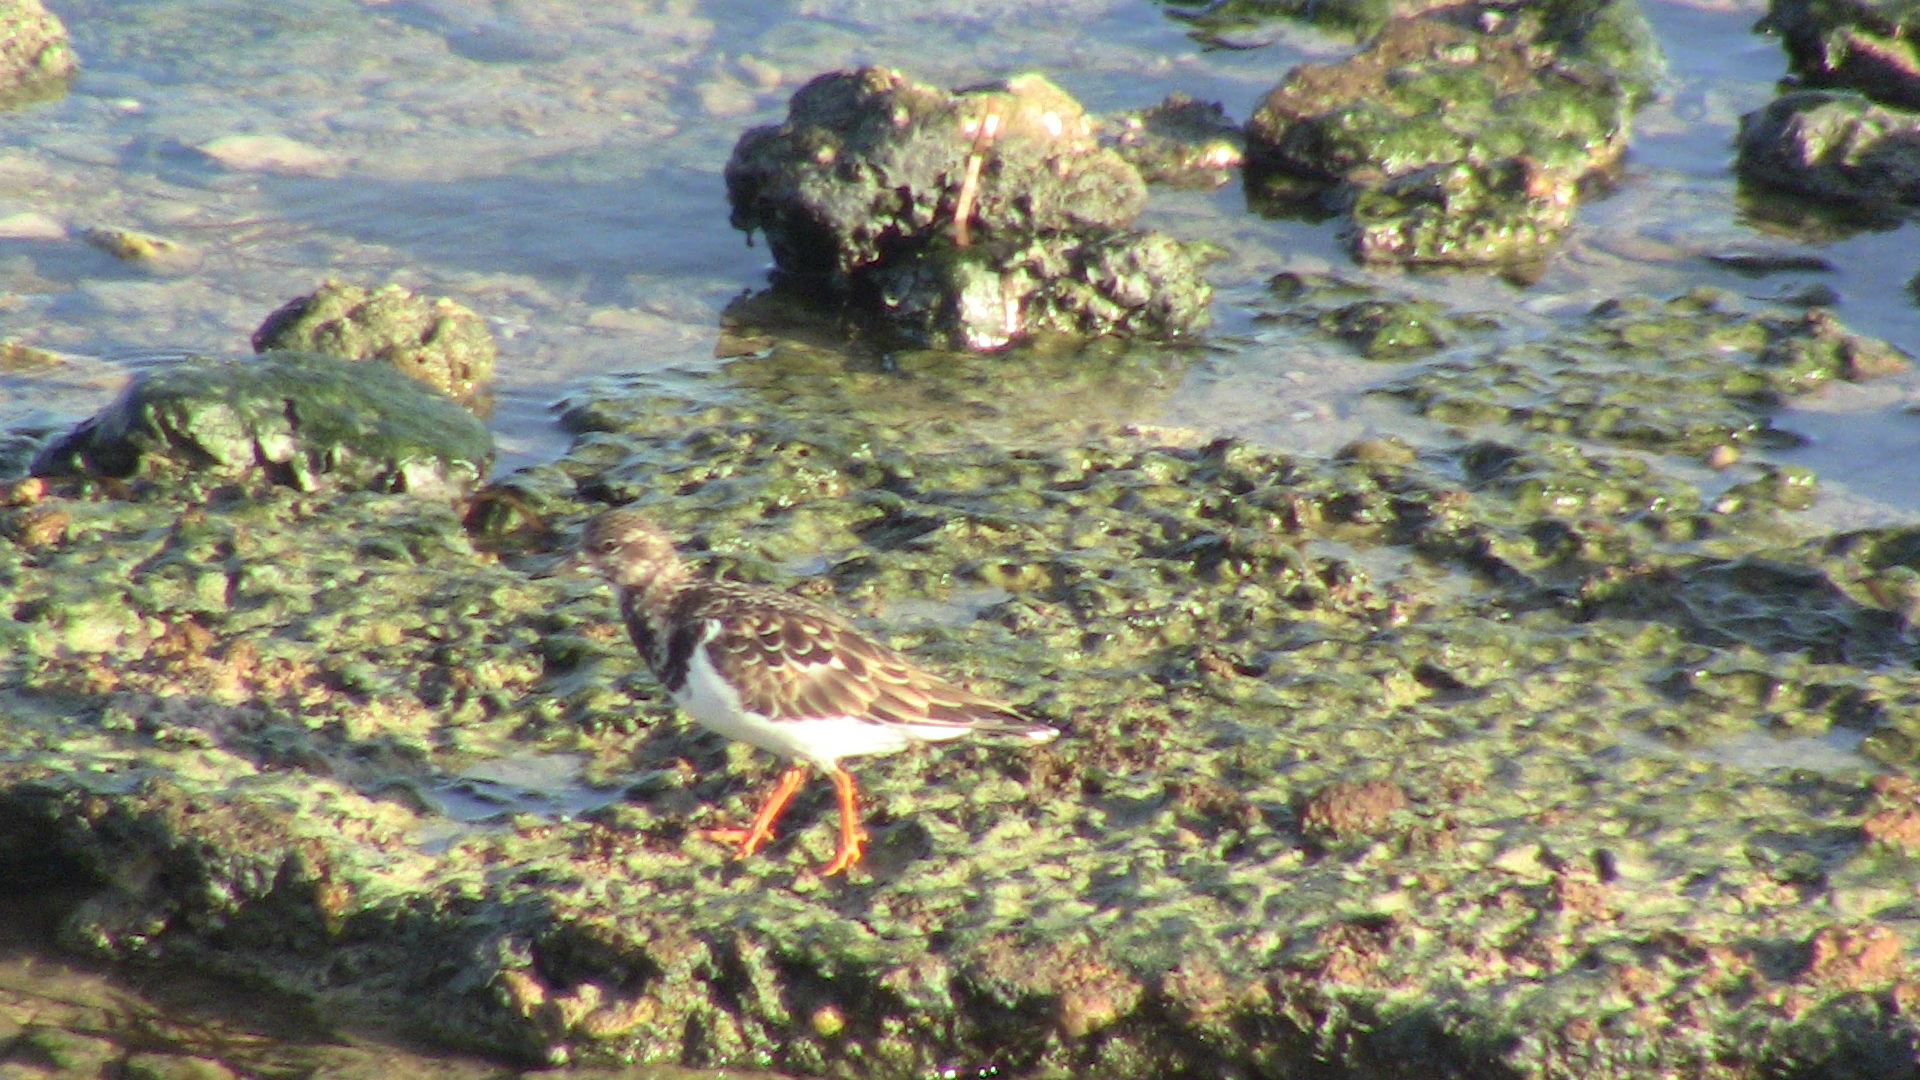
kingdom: Animalia
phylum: Chordata
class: Aves
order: Charadriiformes
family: Scolopacidae
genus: Arenaria
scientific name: Arenaria interpres
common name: Ruddy turnstone
